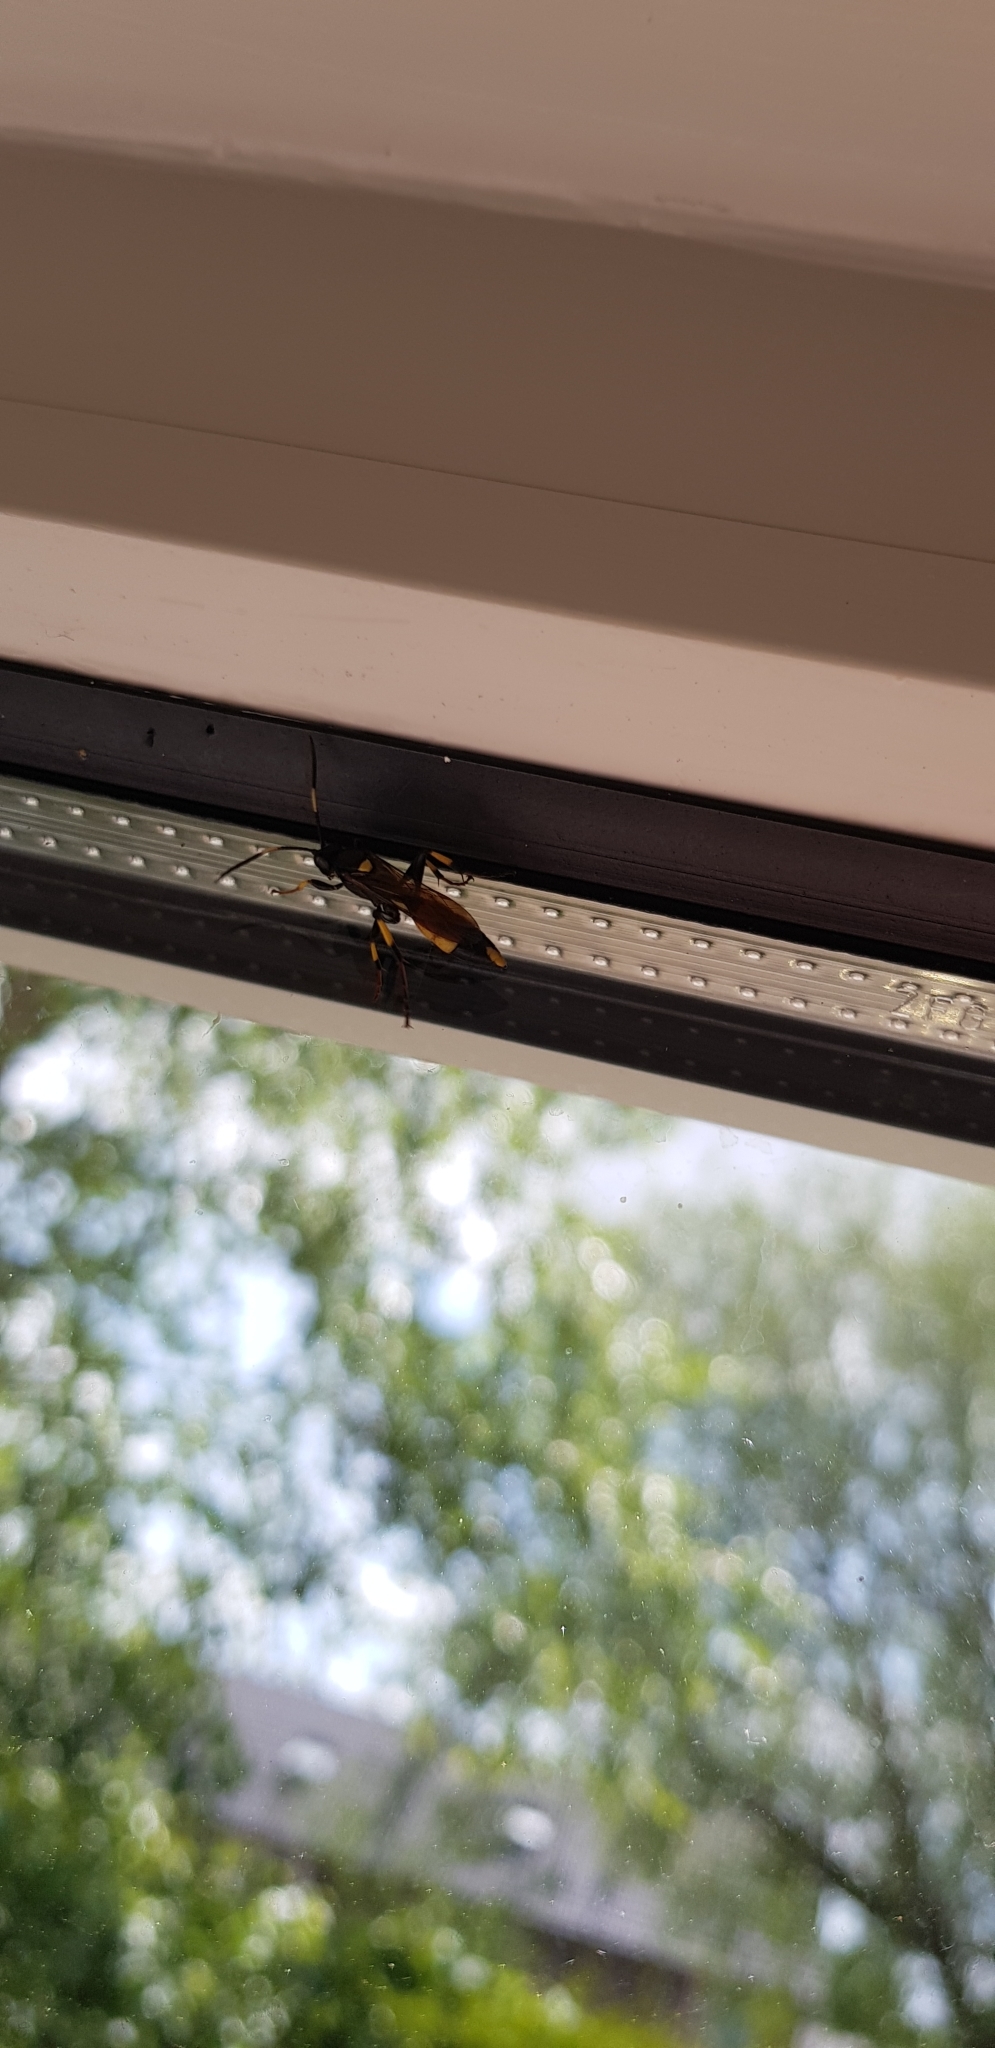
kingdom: Animalia
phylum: Arthropoda
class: Insecta
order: Hymenoptera
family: Ichneumonidae
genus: Ichneumon
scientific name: Ichneumon stramentor
